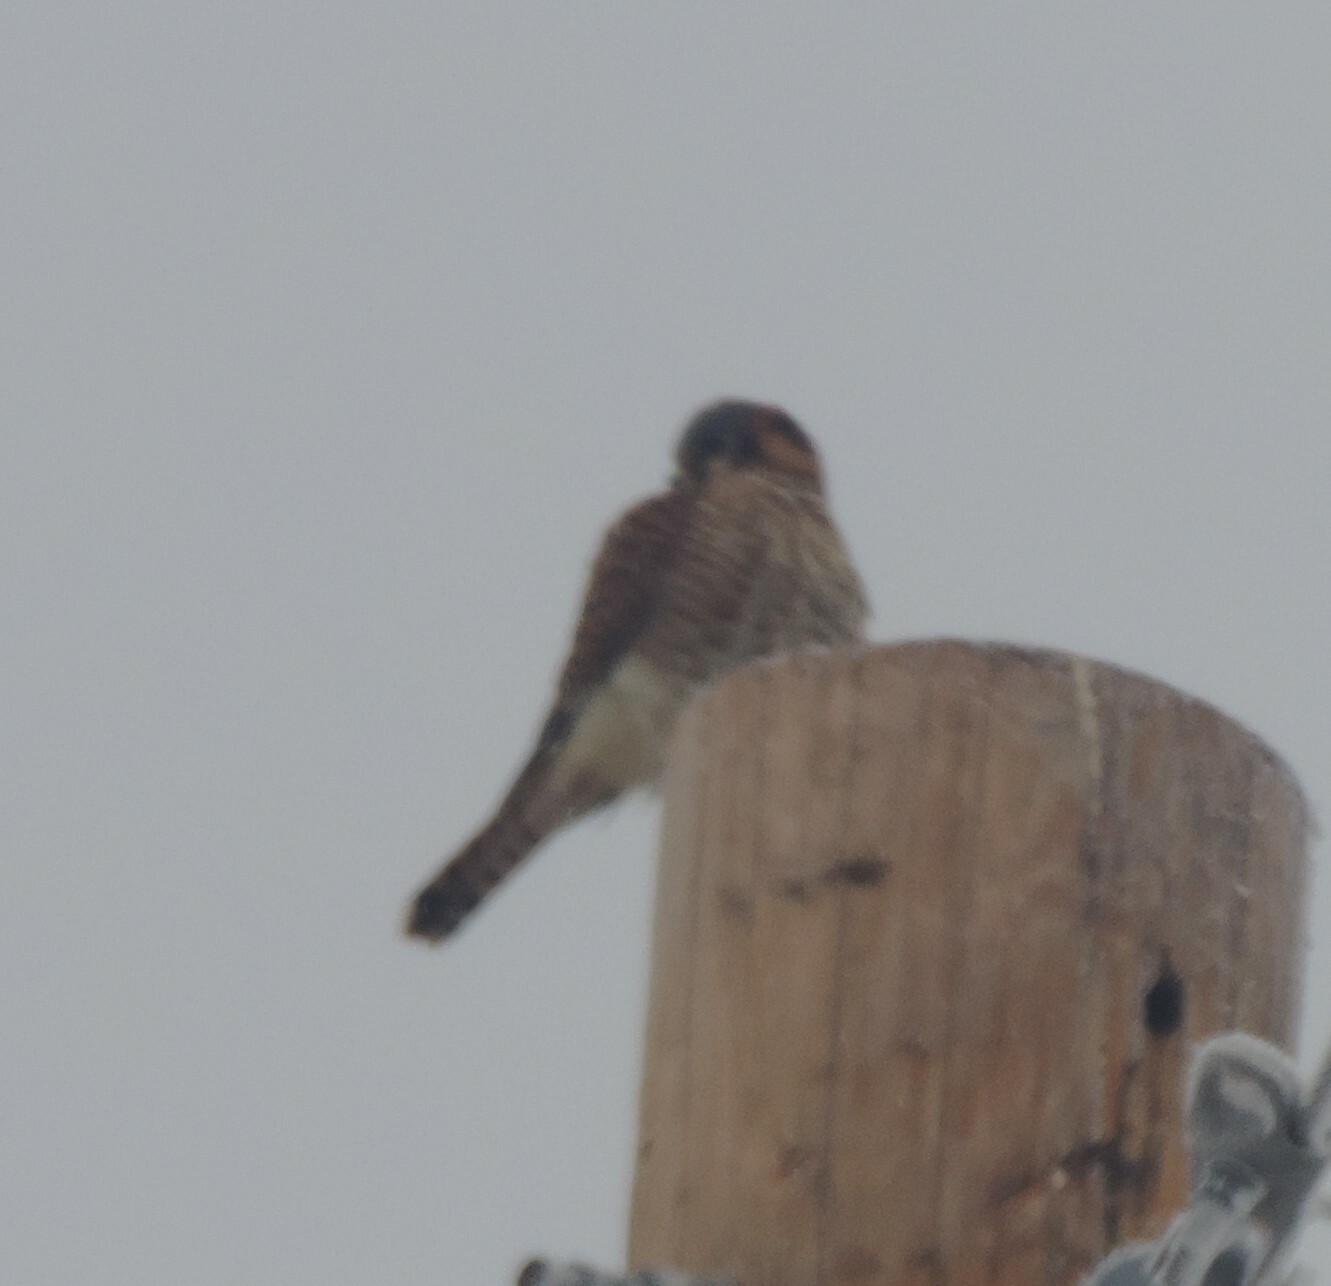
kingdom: Animalia
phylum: Chordata
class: Aves
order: Falconiformes
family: Falconidae
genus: Falco
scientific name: Falco sparverius
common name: American kestrel
